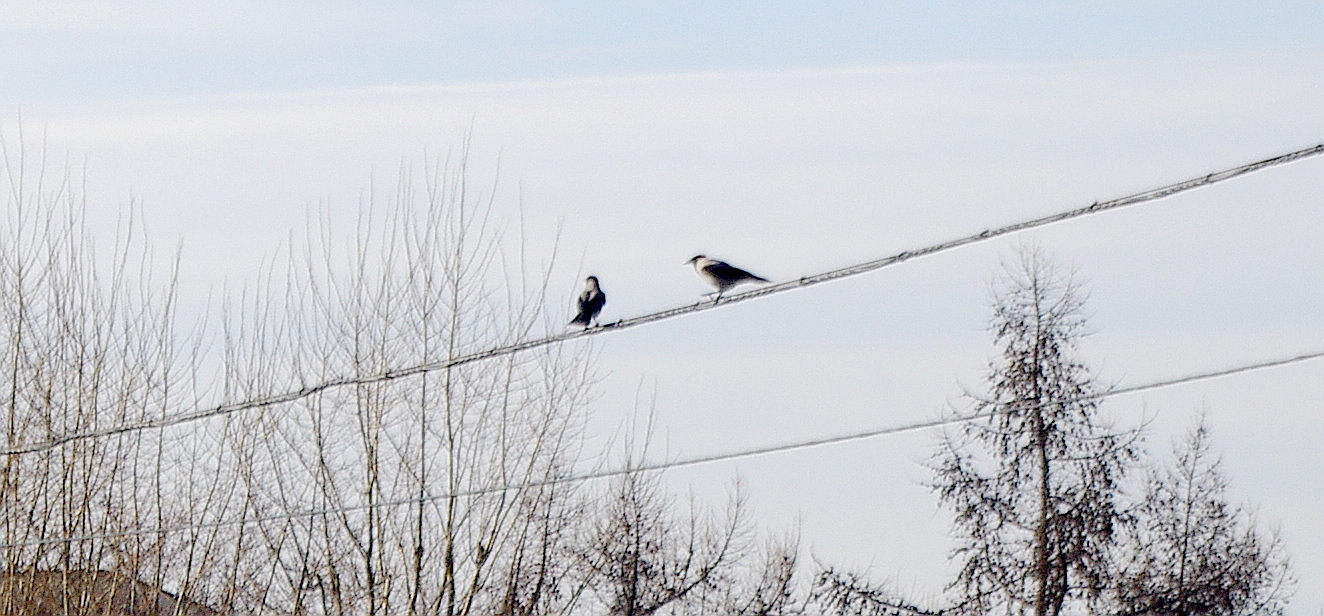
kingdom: Animalia
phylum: Chordata
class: Aves
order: Passeriformes
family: Corvidae
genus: Corvus
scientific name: Corvus cornix
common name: Hooded crow
